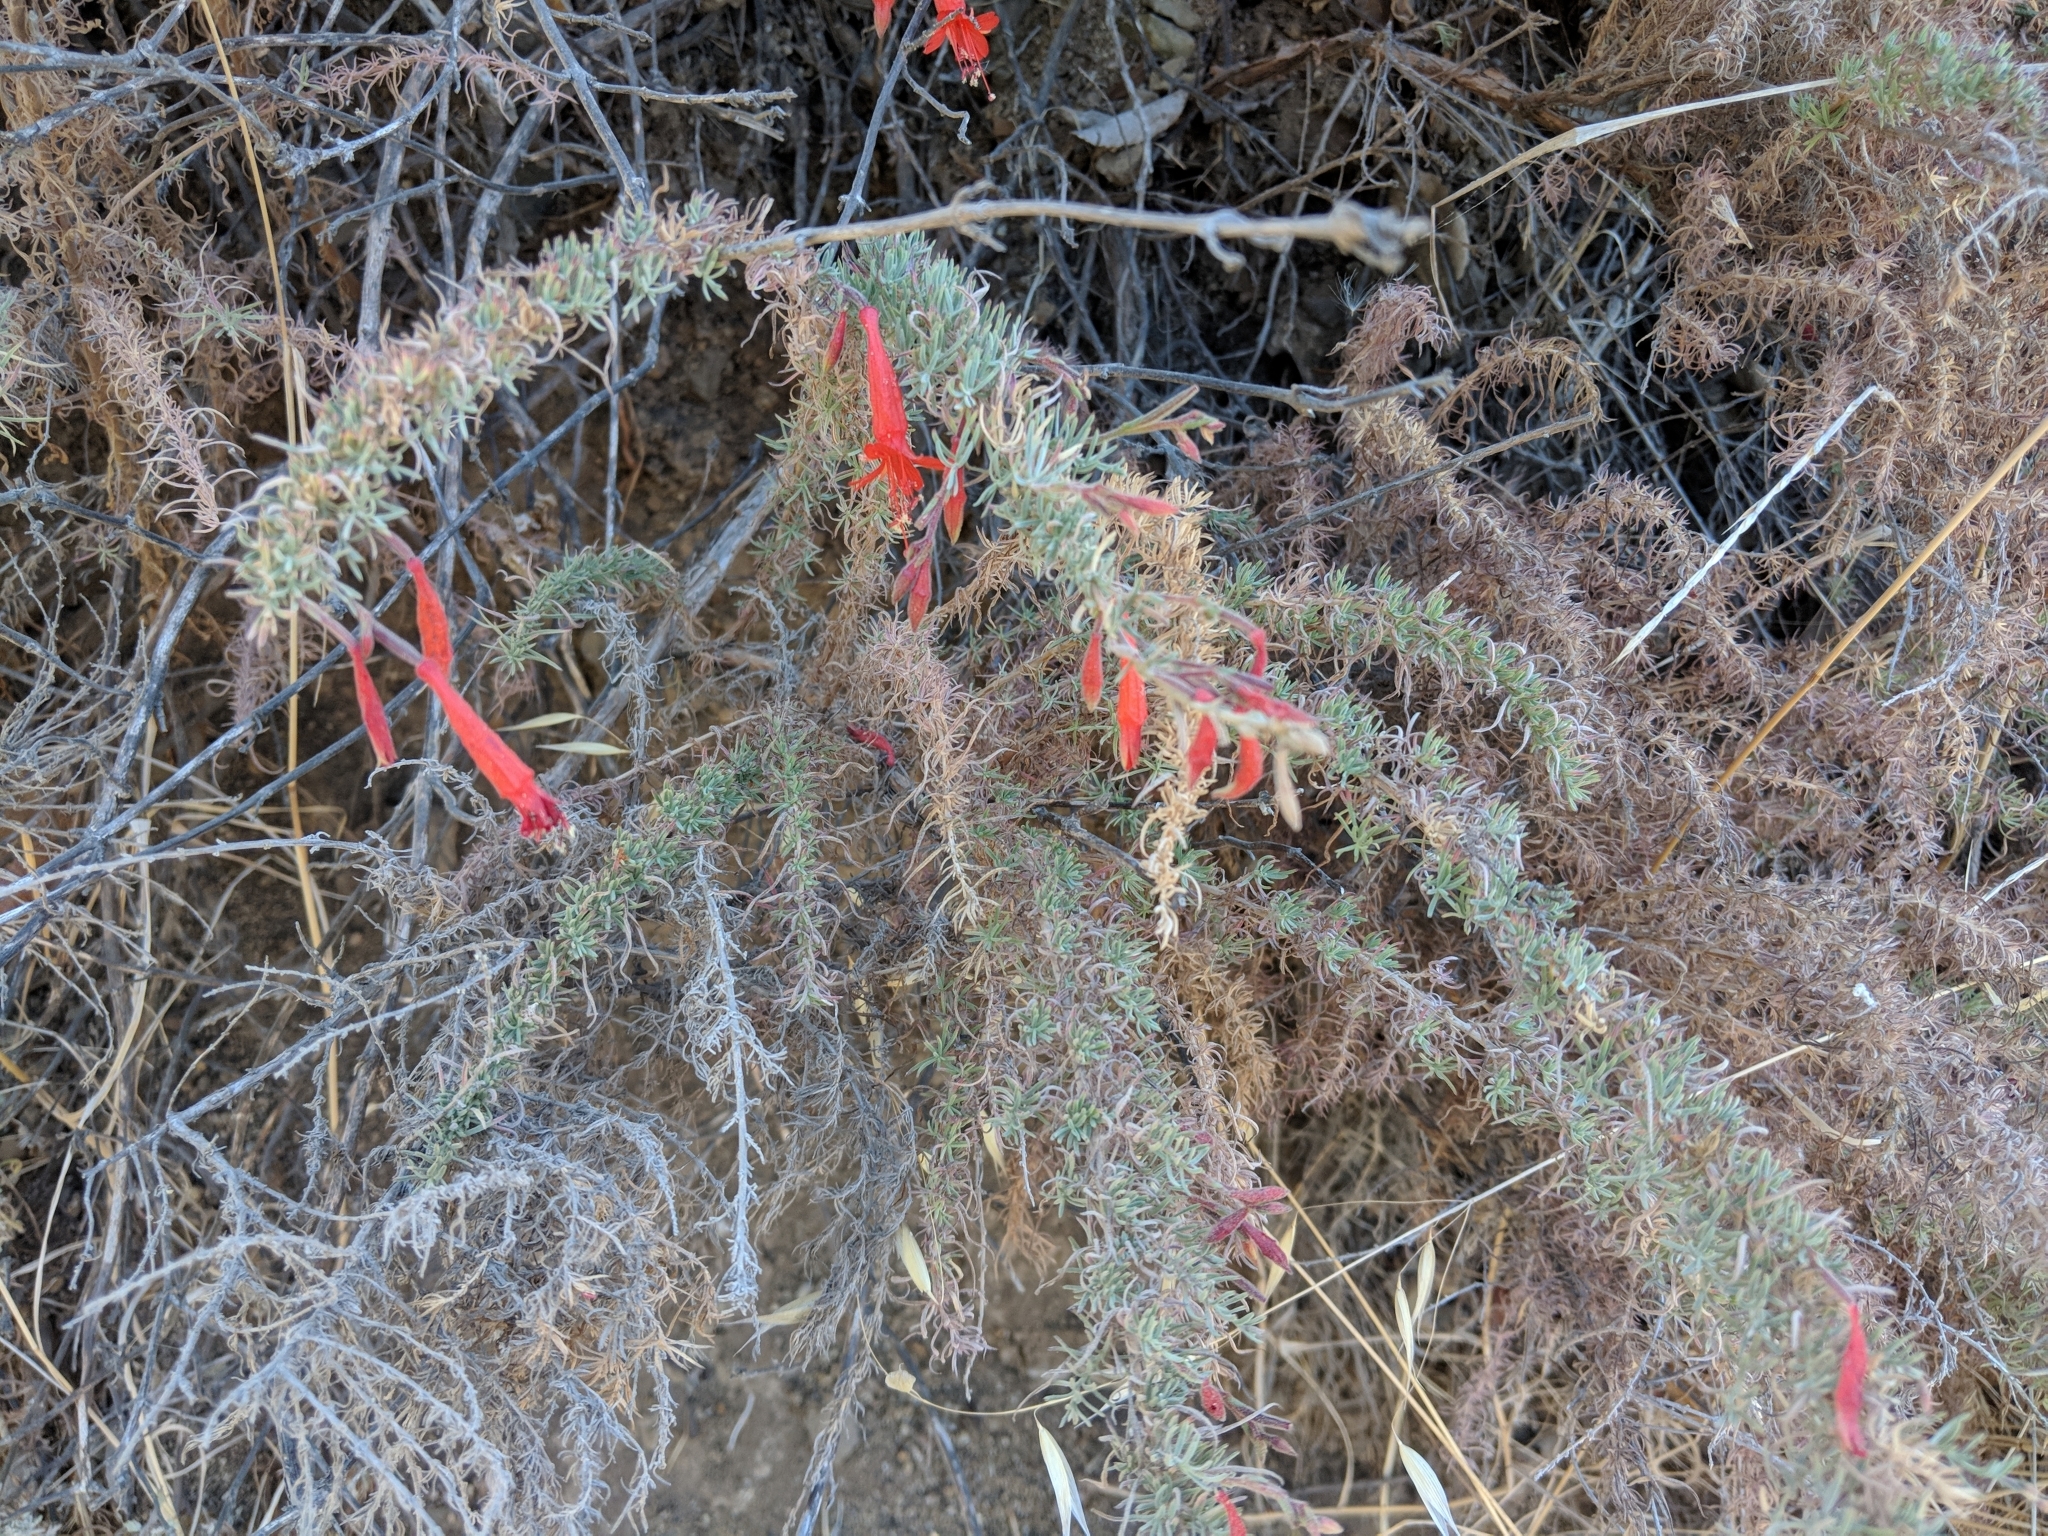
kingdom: Plantae
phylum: Tracheophyta
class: Magnoliopsida
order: Myrtales
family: Onagraceae
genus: Epilobium
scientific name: Epilobium canum
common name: California-fuchsia
